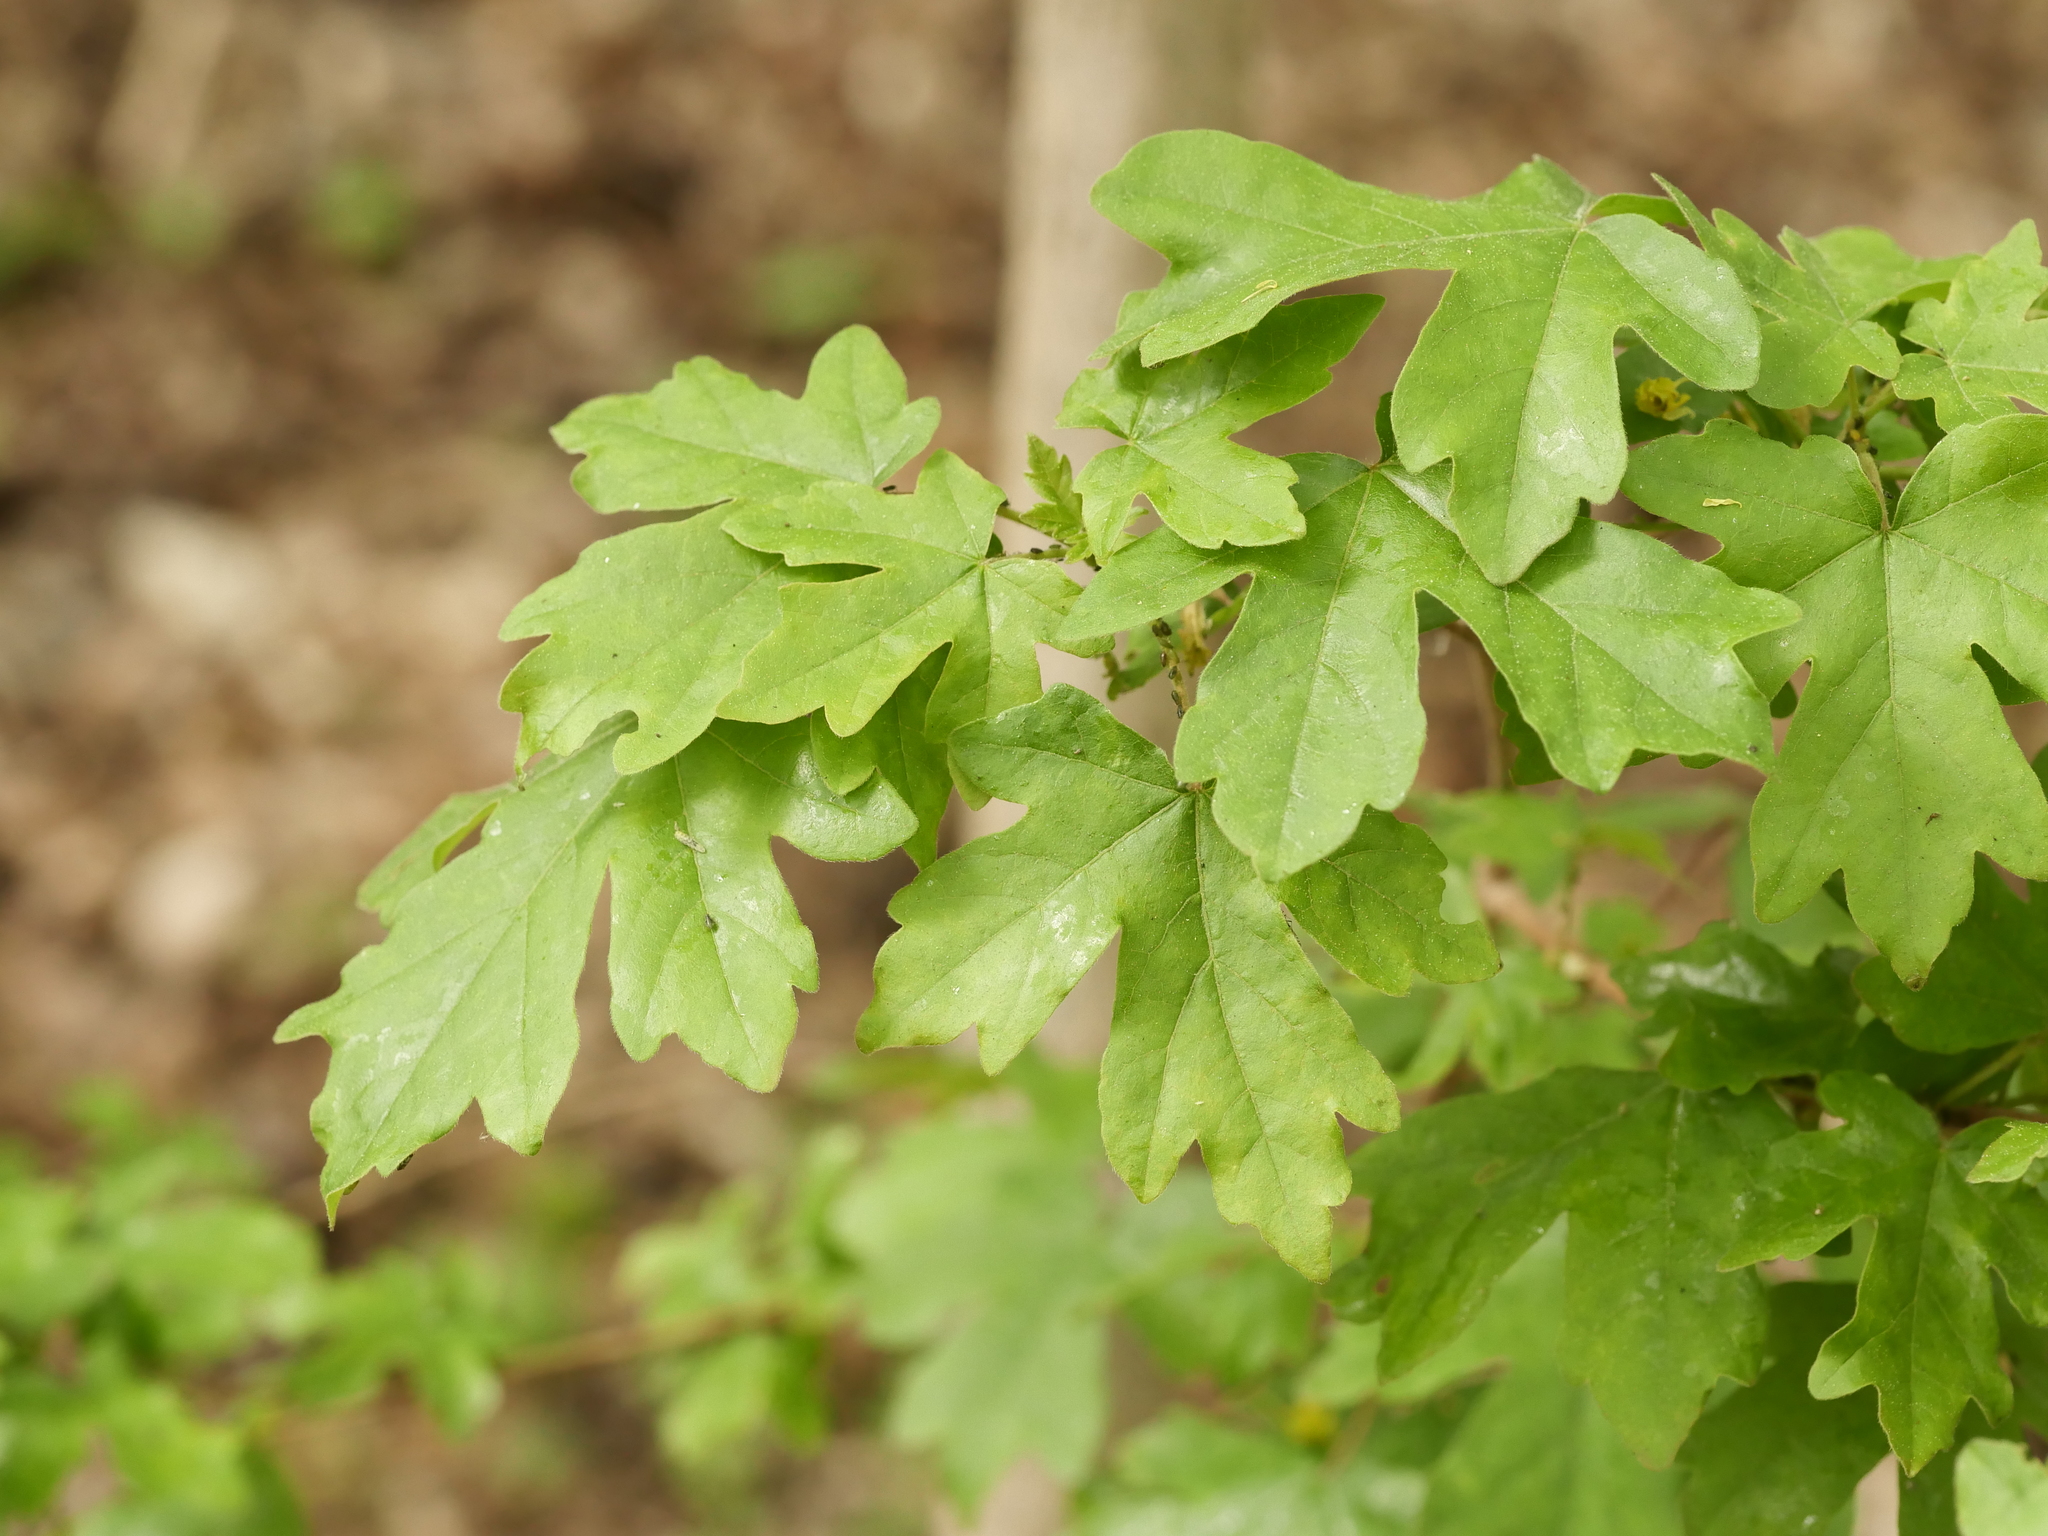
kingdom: Plantae
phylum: Tracheophyta
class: Magnoliopsida
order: Sapindales
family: Sapindaceae
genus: Acer
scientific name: Acer campestre
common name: Field maple
